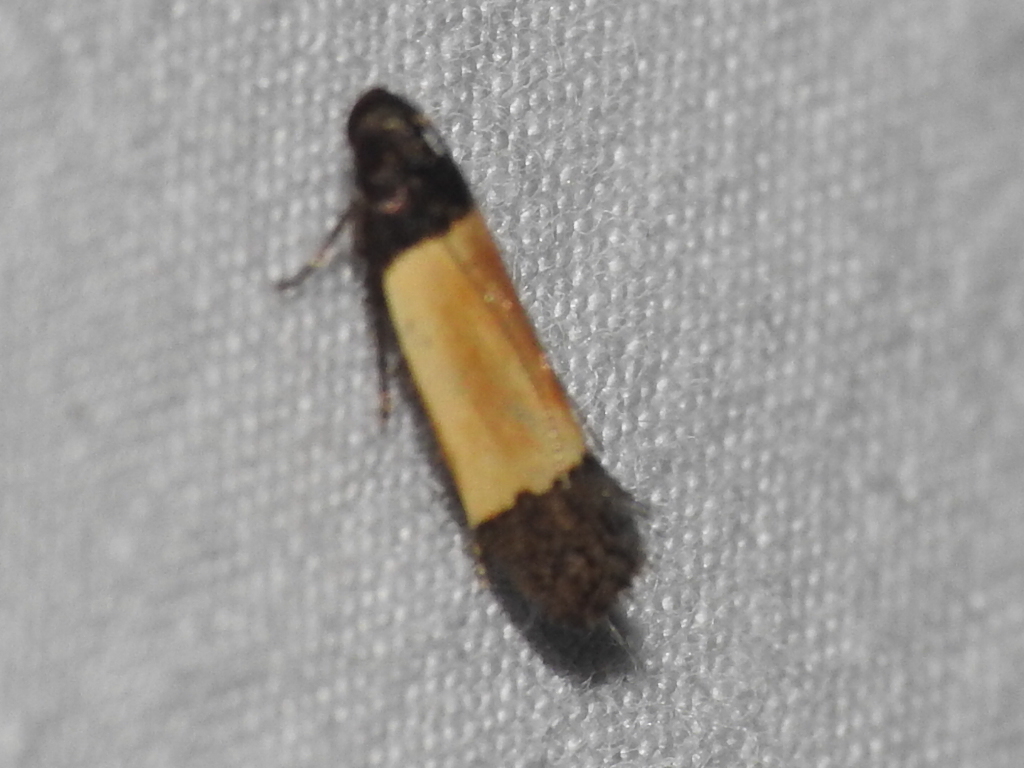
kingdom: Animalia
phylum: Arthropoda
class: Insecta
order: Lepidoptera
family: Gelechiidae
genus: Anacampsis
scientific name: Anacampsis coverdalella
